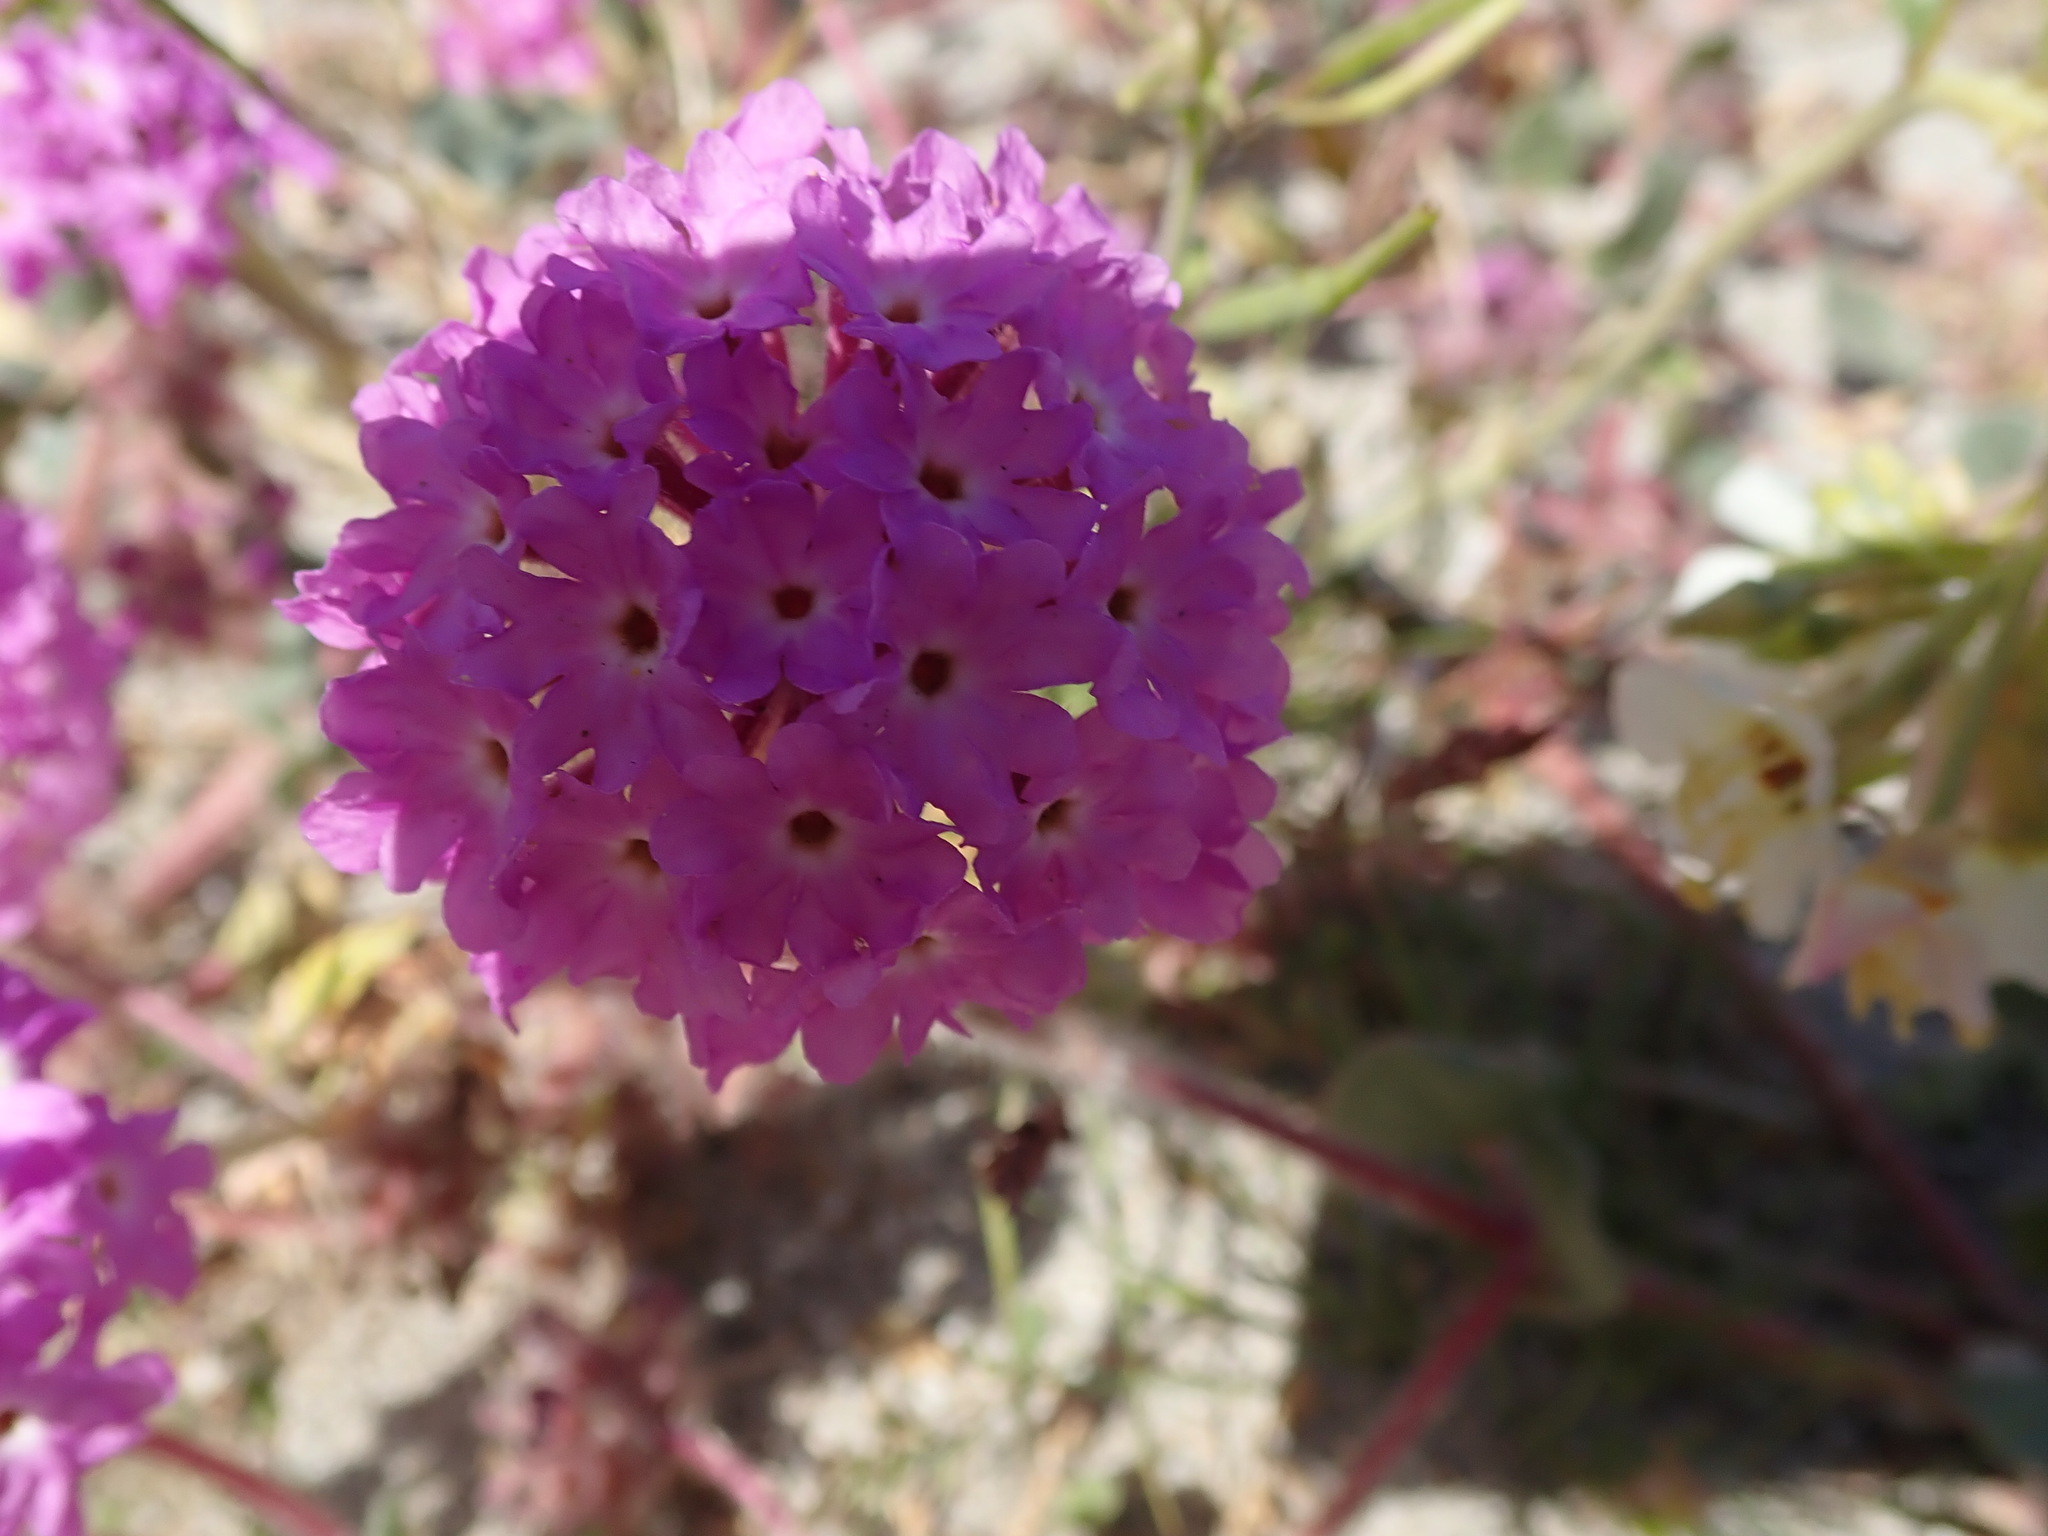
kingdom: Plantae
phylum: Tracheophyta
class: Magnoliopsida
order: Caryophyllales
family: Nyctaginaceae
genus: Abronia
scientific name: Abronia villosa
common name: Desert sand-verbena
